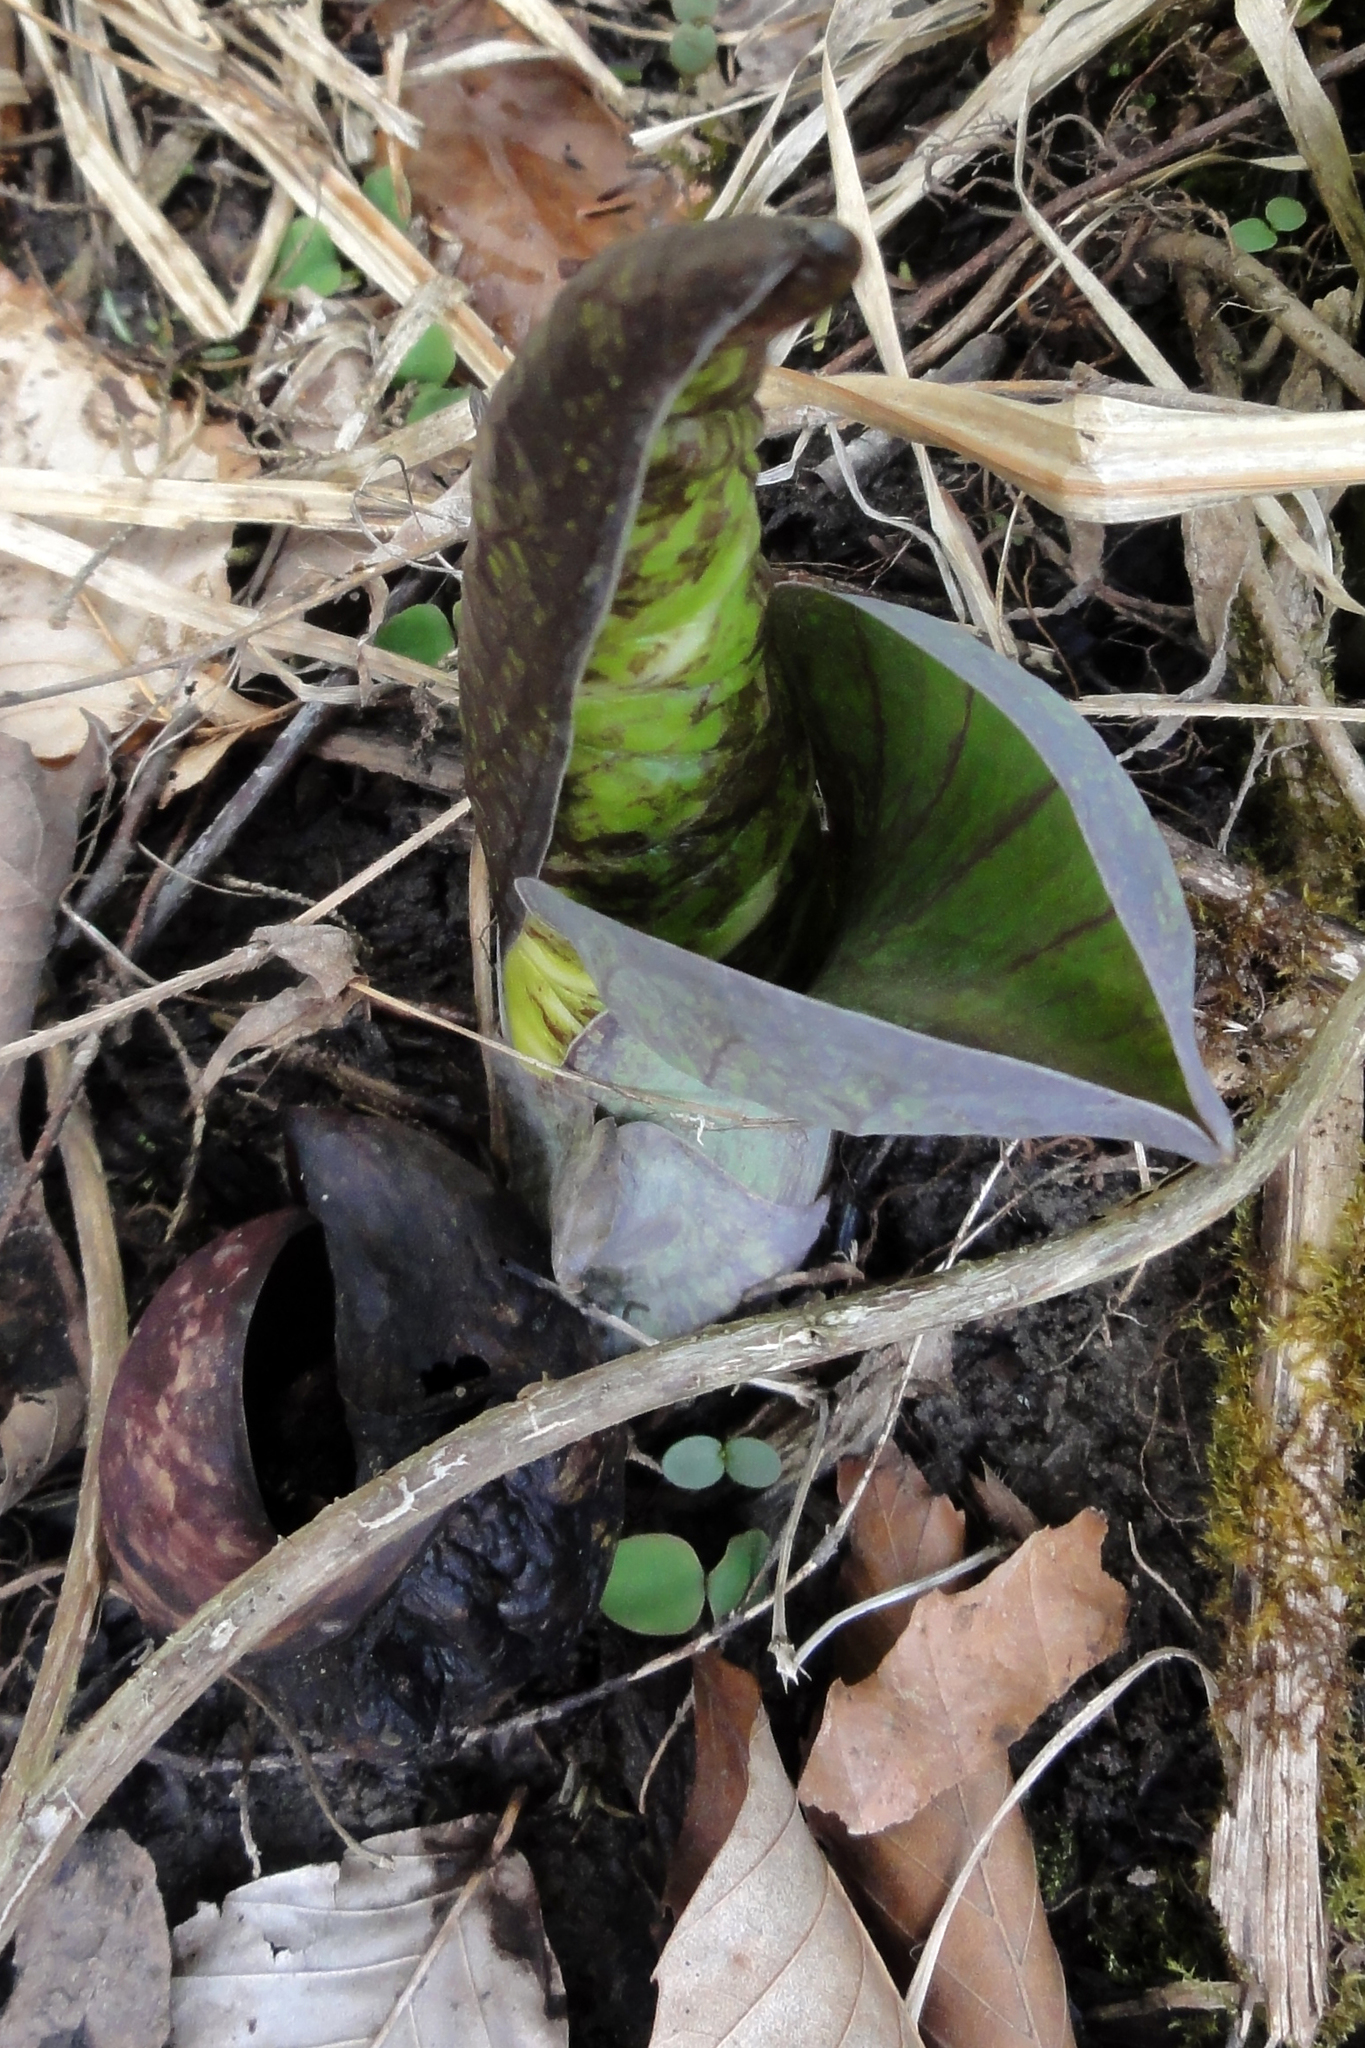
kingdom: Plantae
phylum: Tracheophyta
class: Liliopsida
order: Alismatales
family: Araceae
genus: Symplocarpus
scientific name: Symplocarpus foetidus
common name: Eastern skunk cabbage
